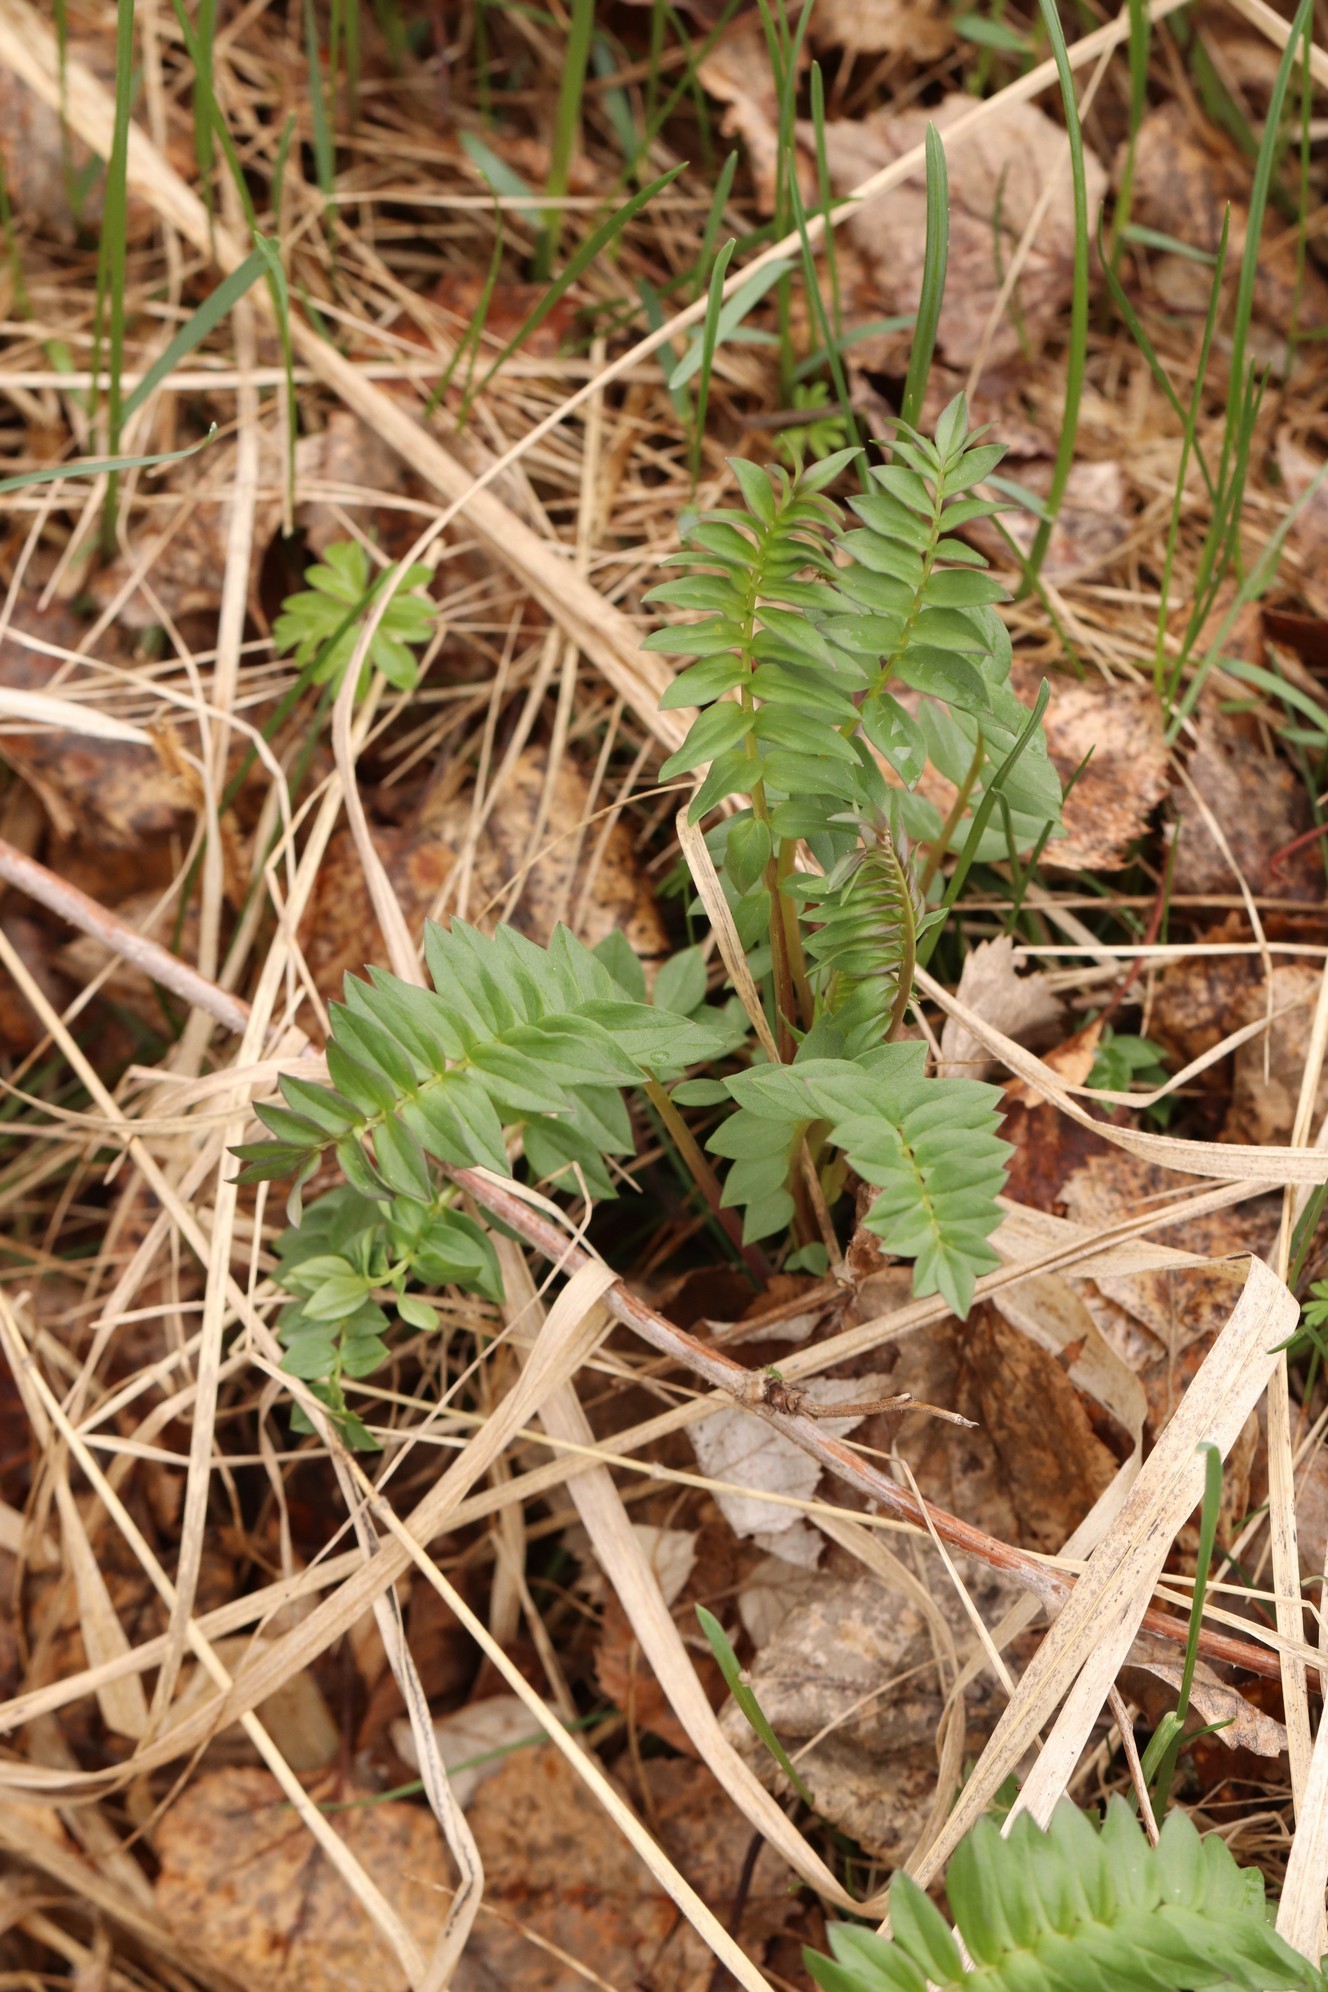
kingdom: Plantae
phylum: Tracheophyta
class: Magnoliopsida
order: Ericales
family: Polemoniaceae
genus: Polemonium
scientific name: Polemonium caeruleum
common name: Jacob's-ladder
